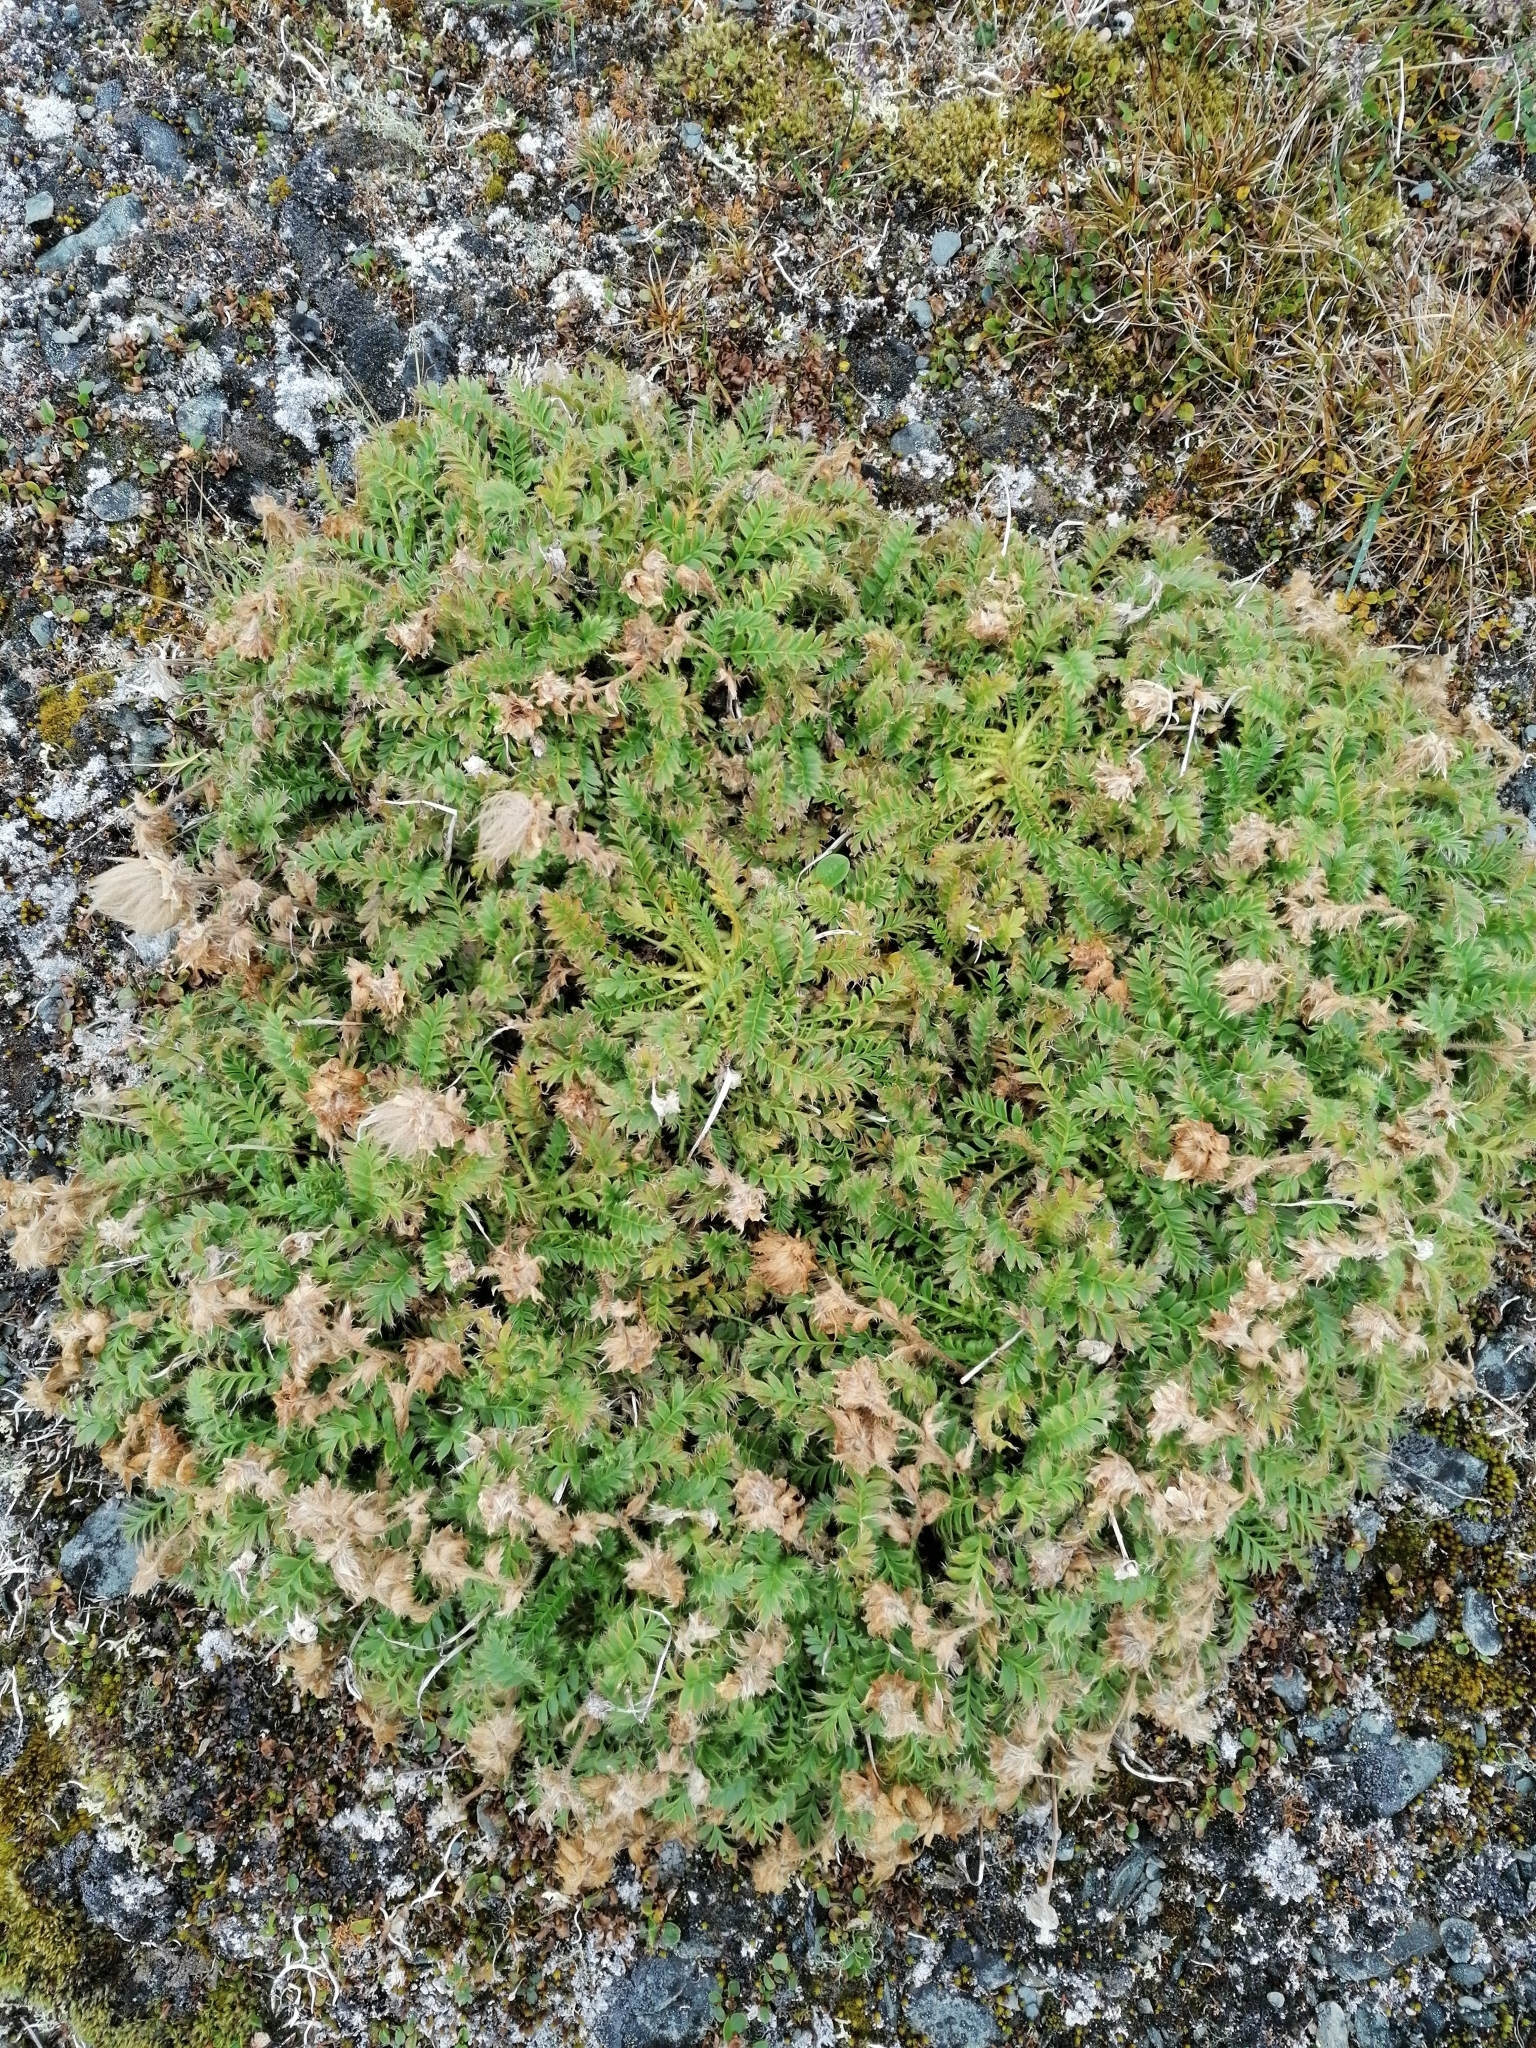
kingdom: Plantae
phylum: Tracheophyta
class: Magnoliopsida
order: Rosales
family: Rosaceae
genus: Geum
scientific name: Geum glaciale
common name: Glacier avens
